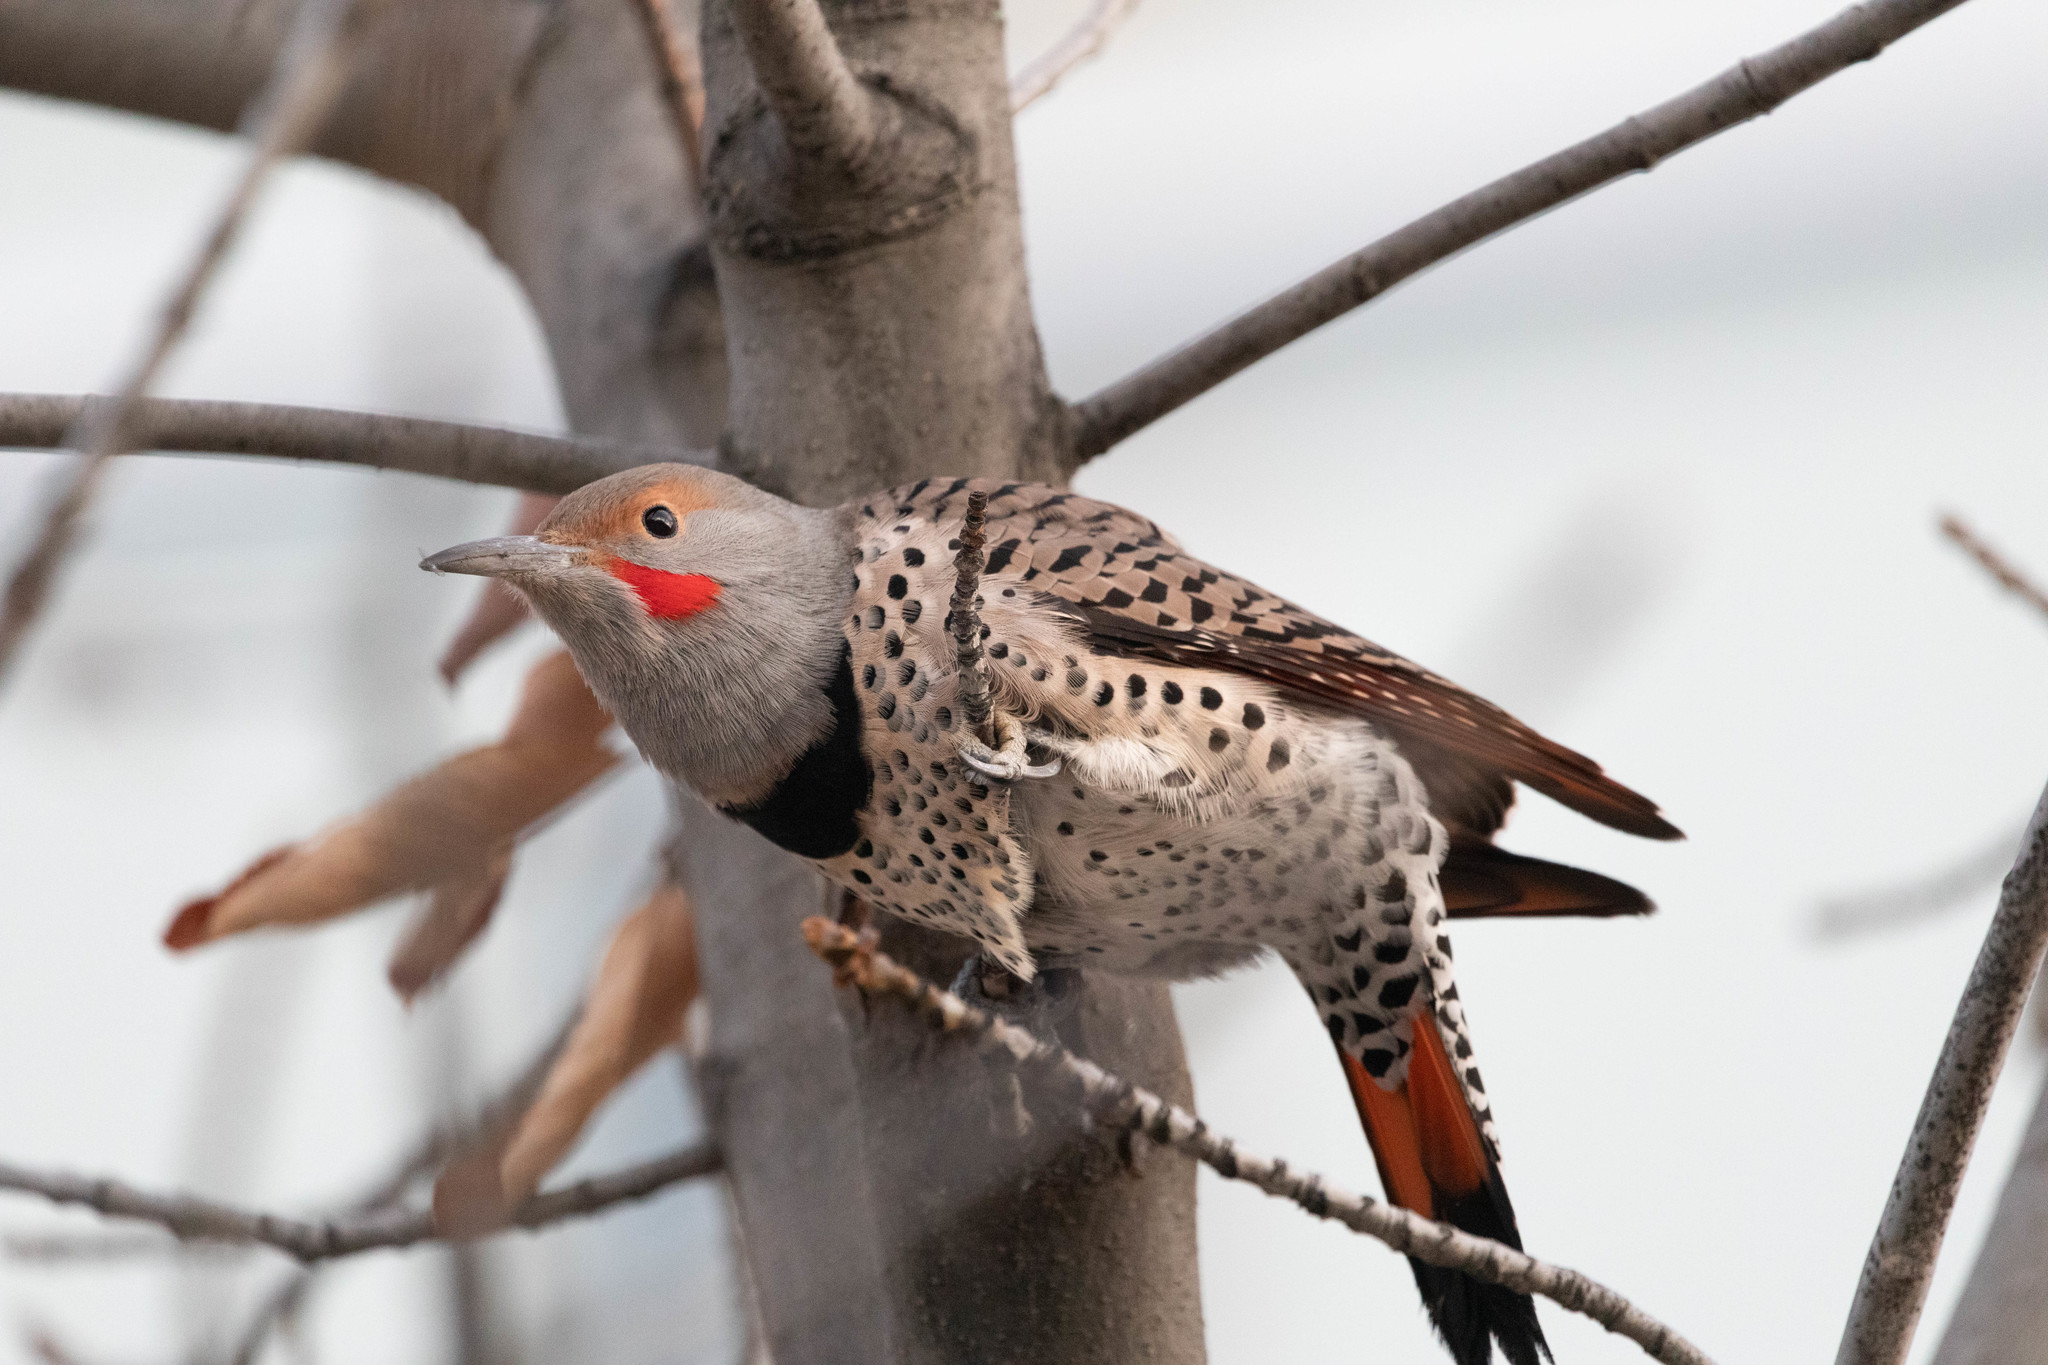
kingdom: Animalia
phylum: Chordata
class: Aves
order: Piciformes
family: Picidae
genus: Colaptes
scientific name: Colaptes auratus
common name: Northern flicker
